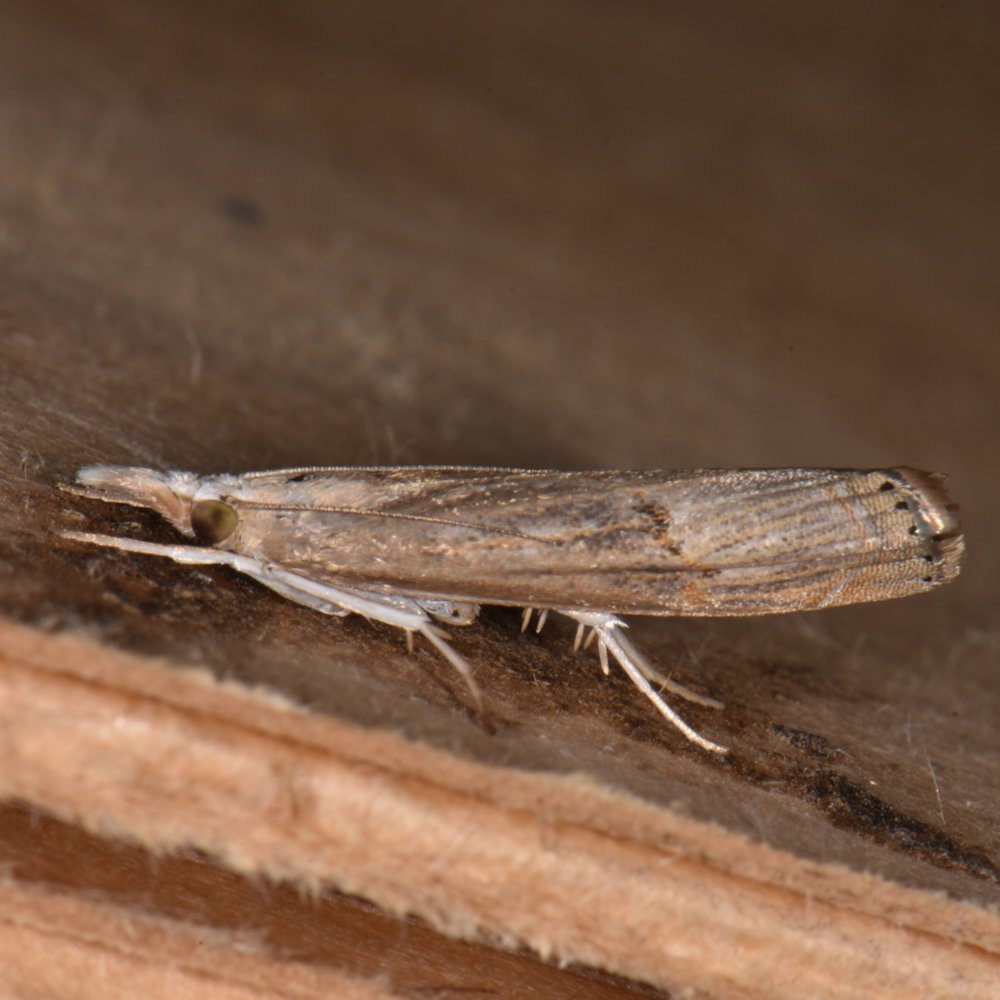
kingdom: Animalia
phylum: Arthropoda
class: Insecta
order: Lepidoptera
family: Crambidae
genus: Parapediasia
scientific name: Parapediasia teterellus
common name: Bluegrass webworm moth
